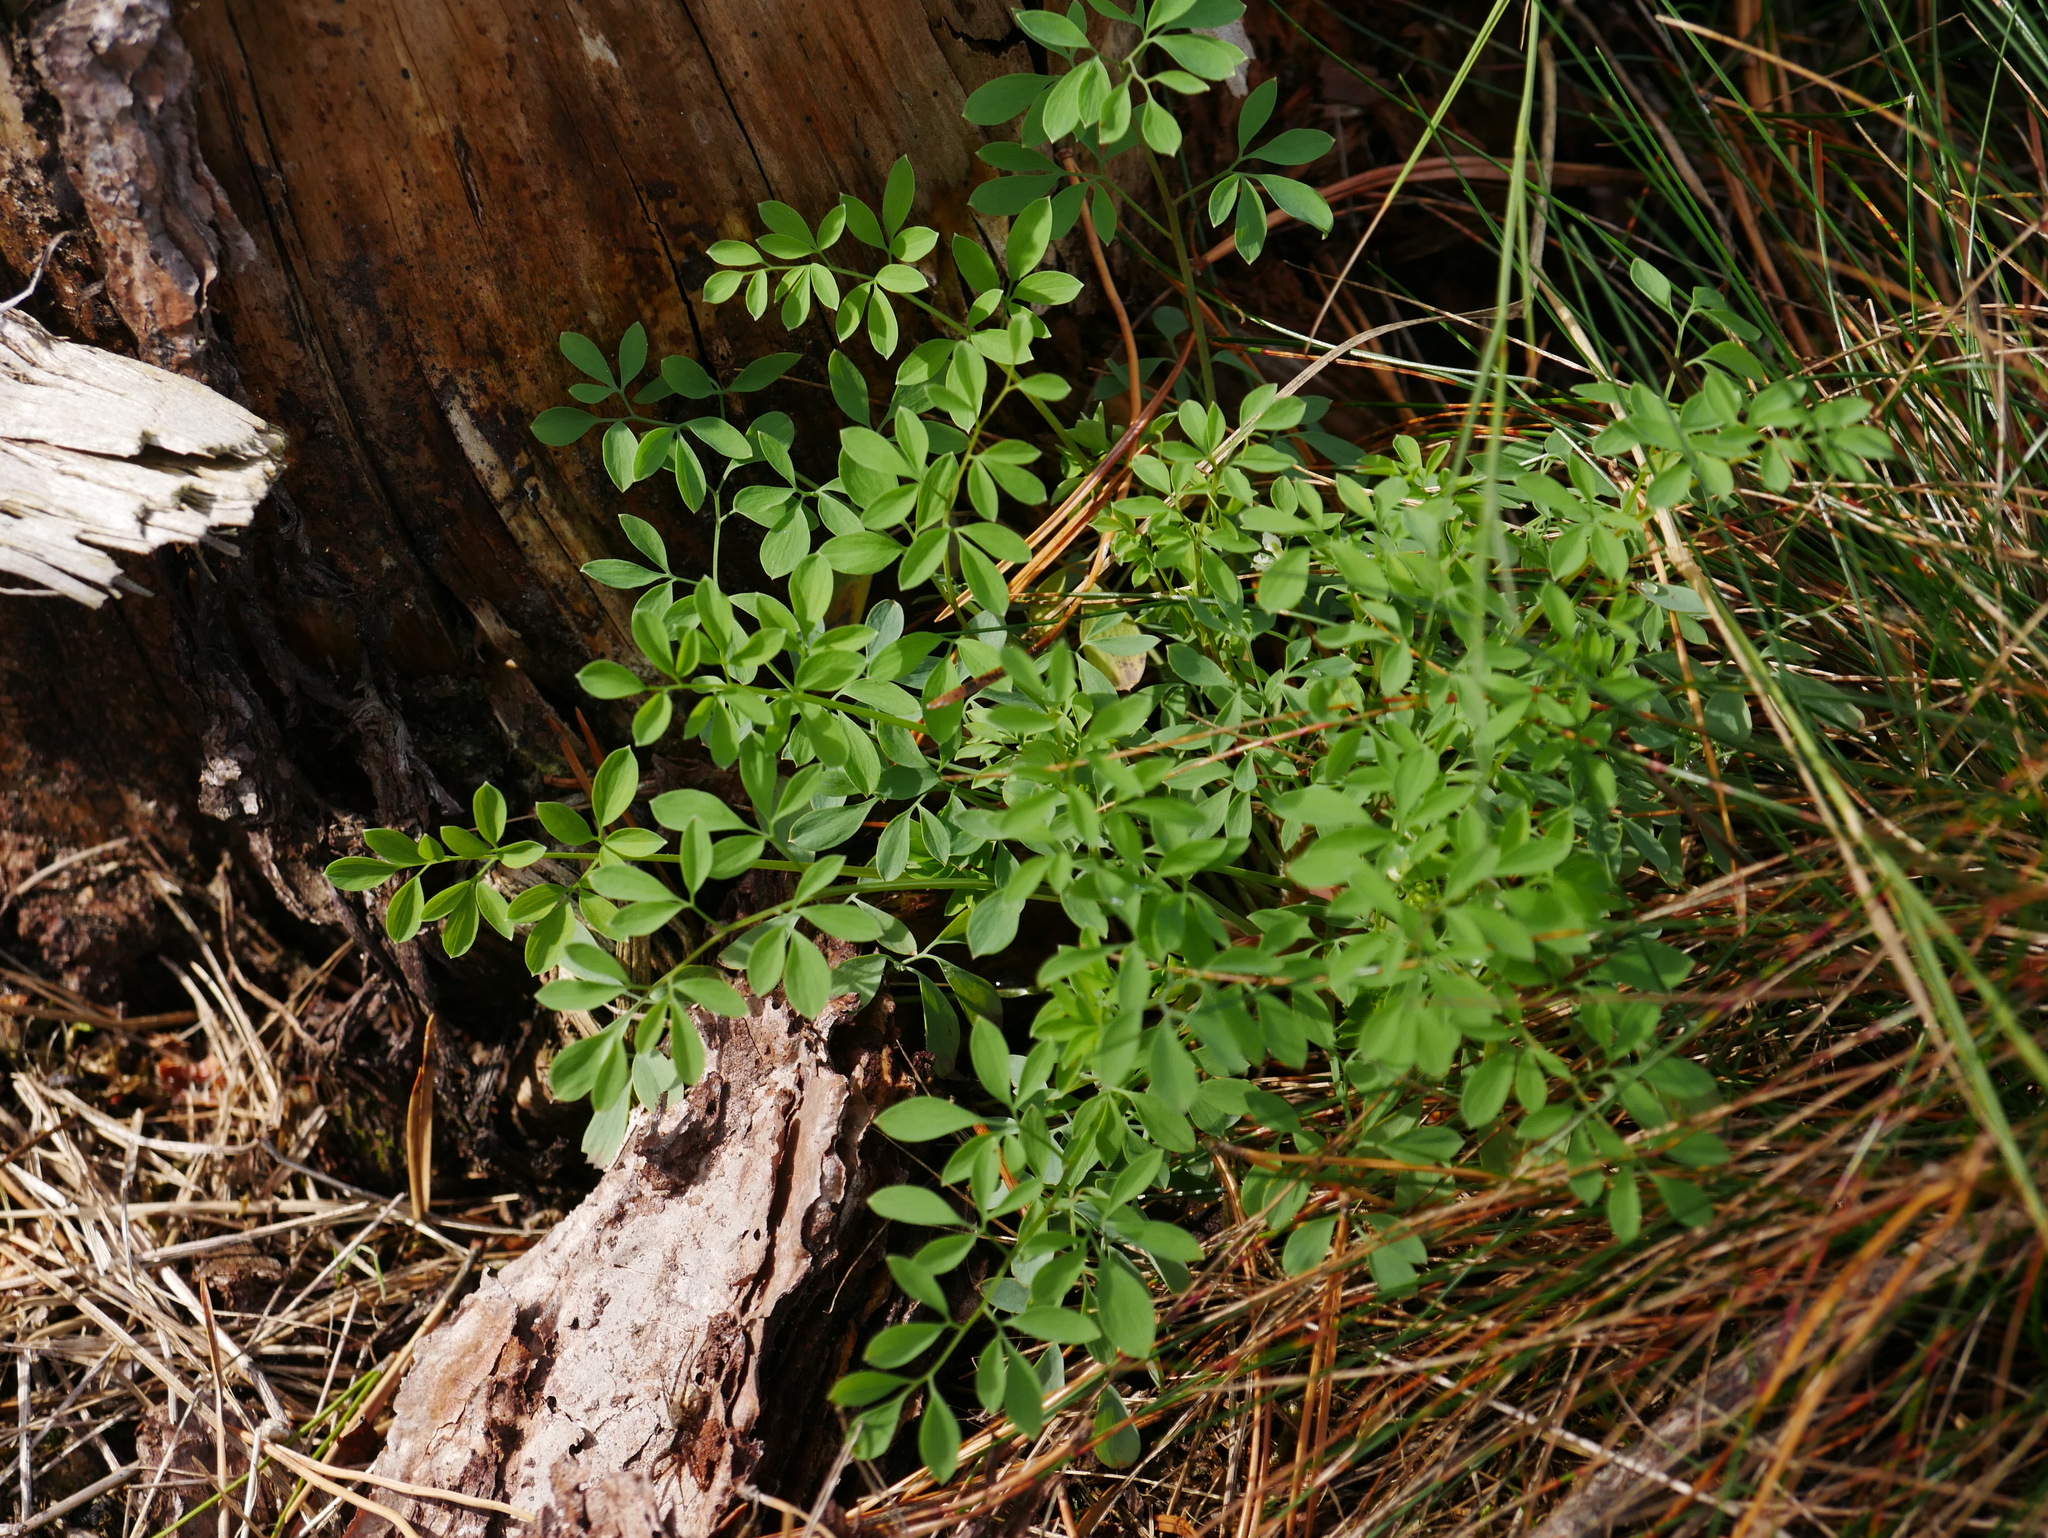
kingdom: Plantae
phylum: Tracheophyta
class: Magnoliopsida
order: Ranunculales
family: Papaveraceae
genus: Ceratocapnos
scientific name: Ceratocapnos claviculata
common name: Climbing corydalis
